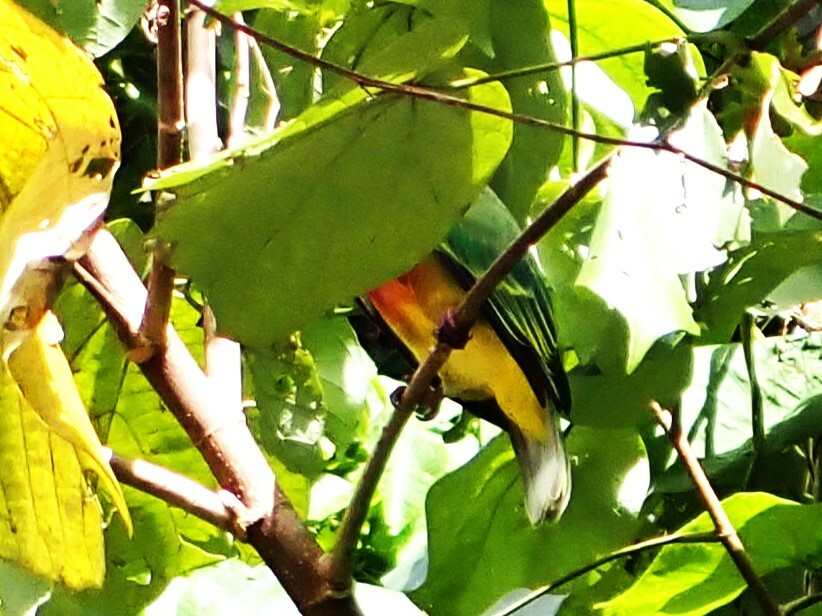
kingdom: Animalia
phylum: Chordata
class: Aves
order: Columbiformes
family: Columbidae
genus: Ptilinopus
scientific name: Ptilinopus rarotongensis
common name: Lilac-crowned fruit dove
